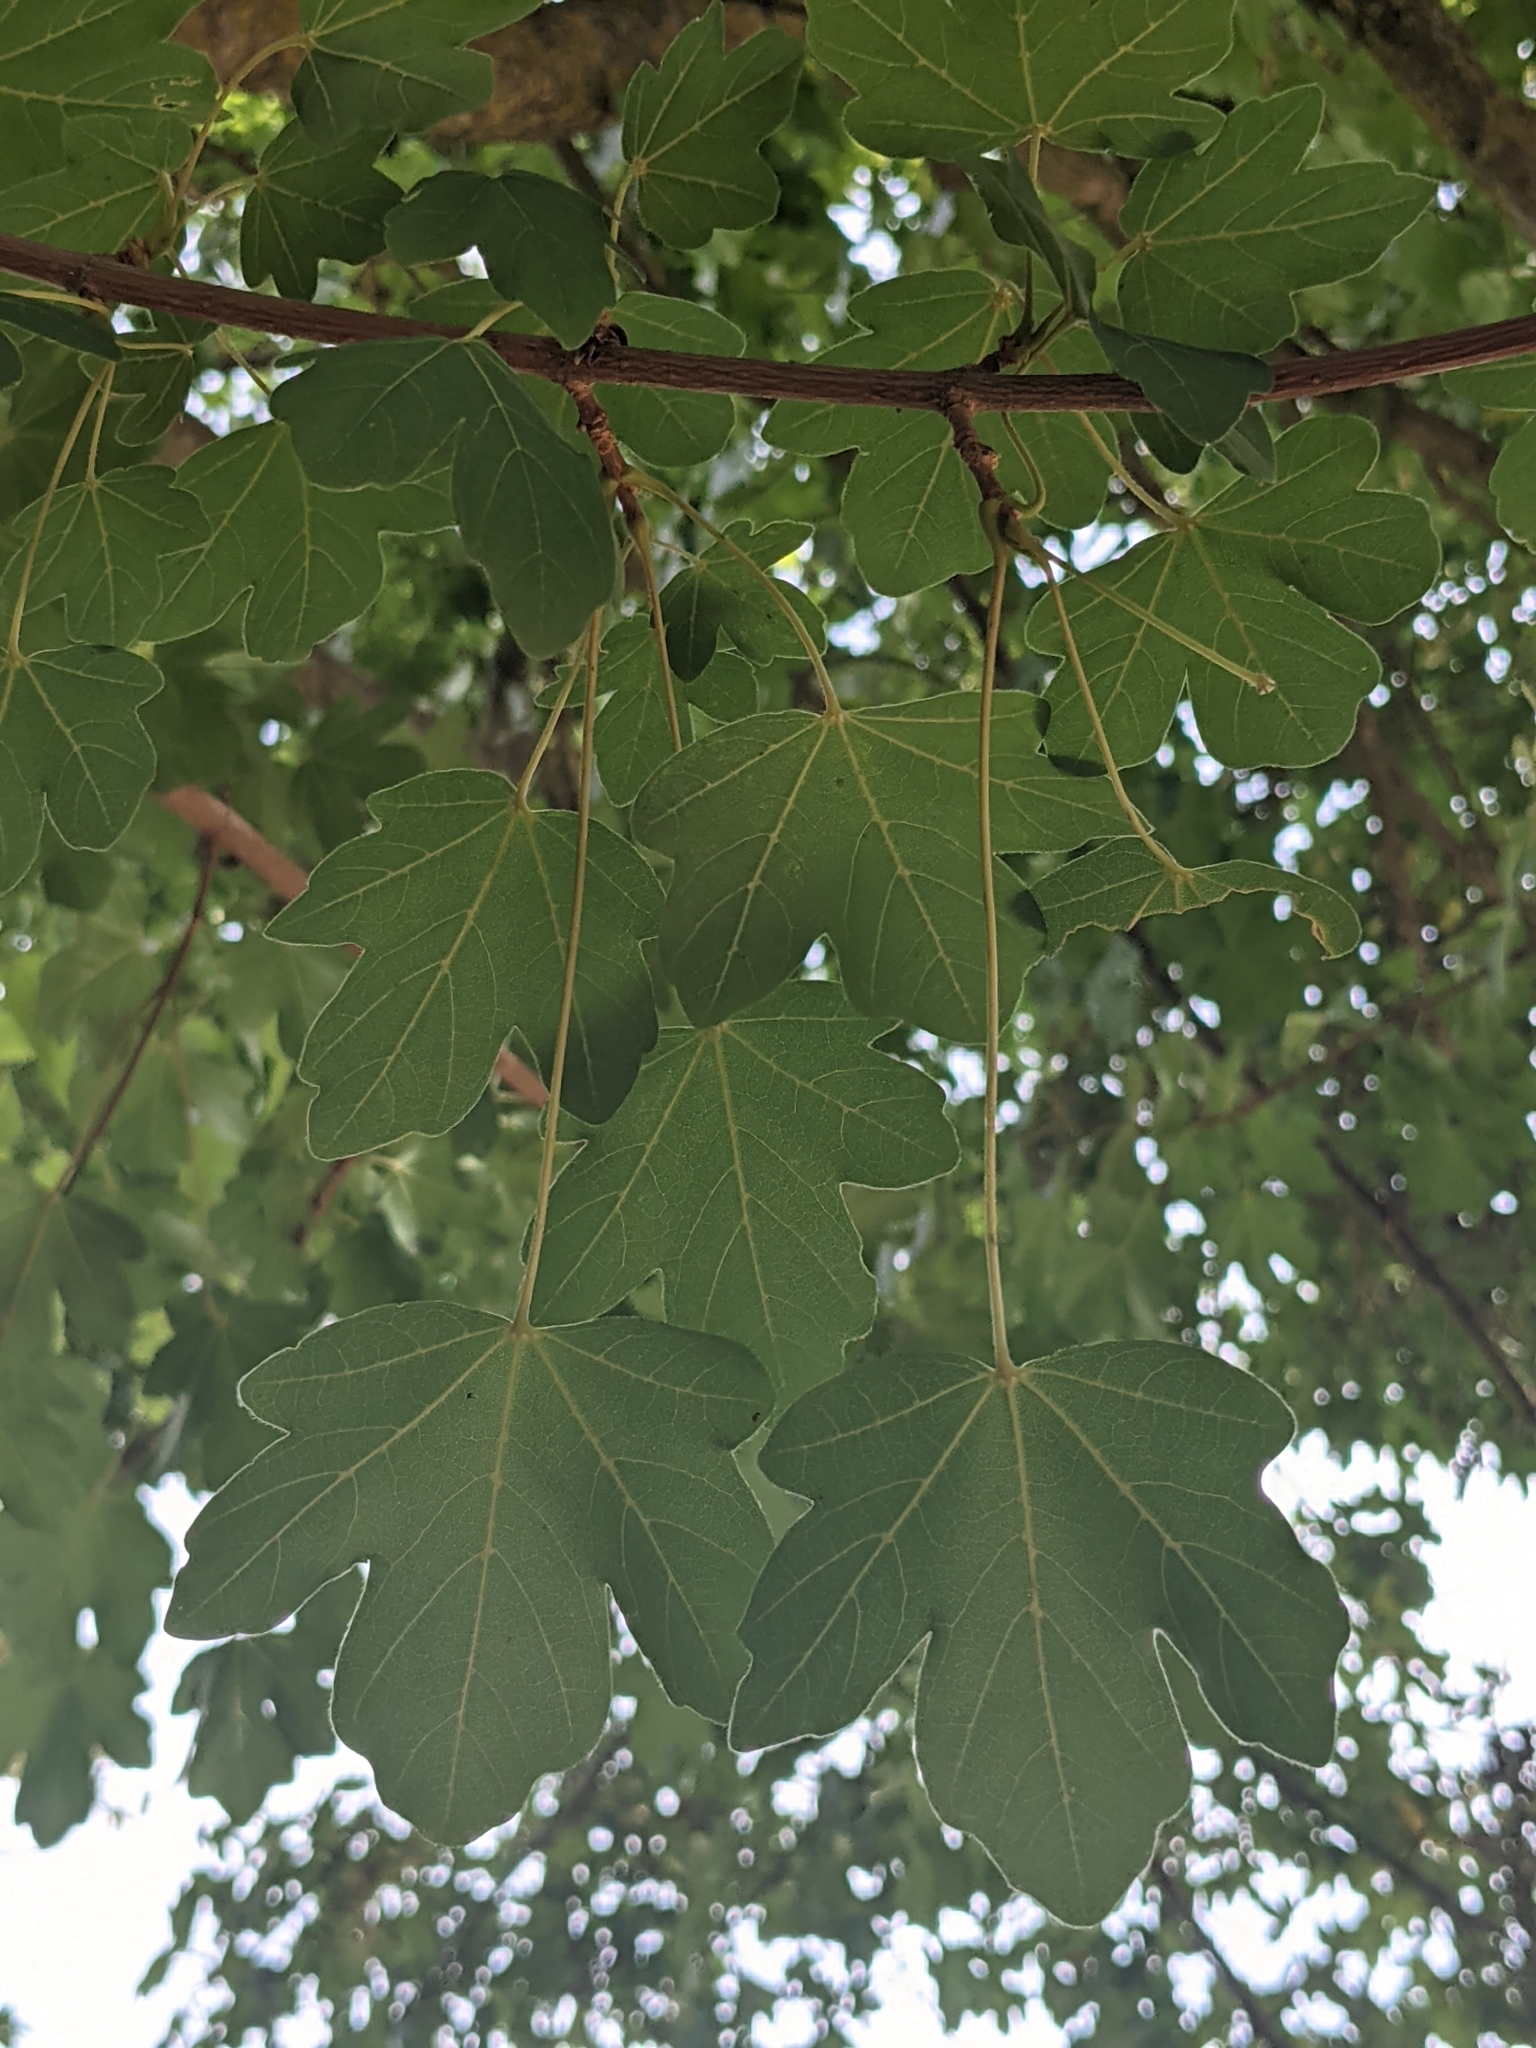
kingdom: Plantae
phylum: Tracheophyta
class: Magnoliopsida
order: Sapindales
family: Sapindaceae
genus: Acer
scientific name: Acer campestre
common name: Field maple
